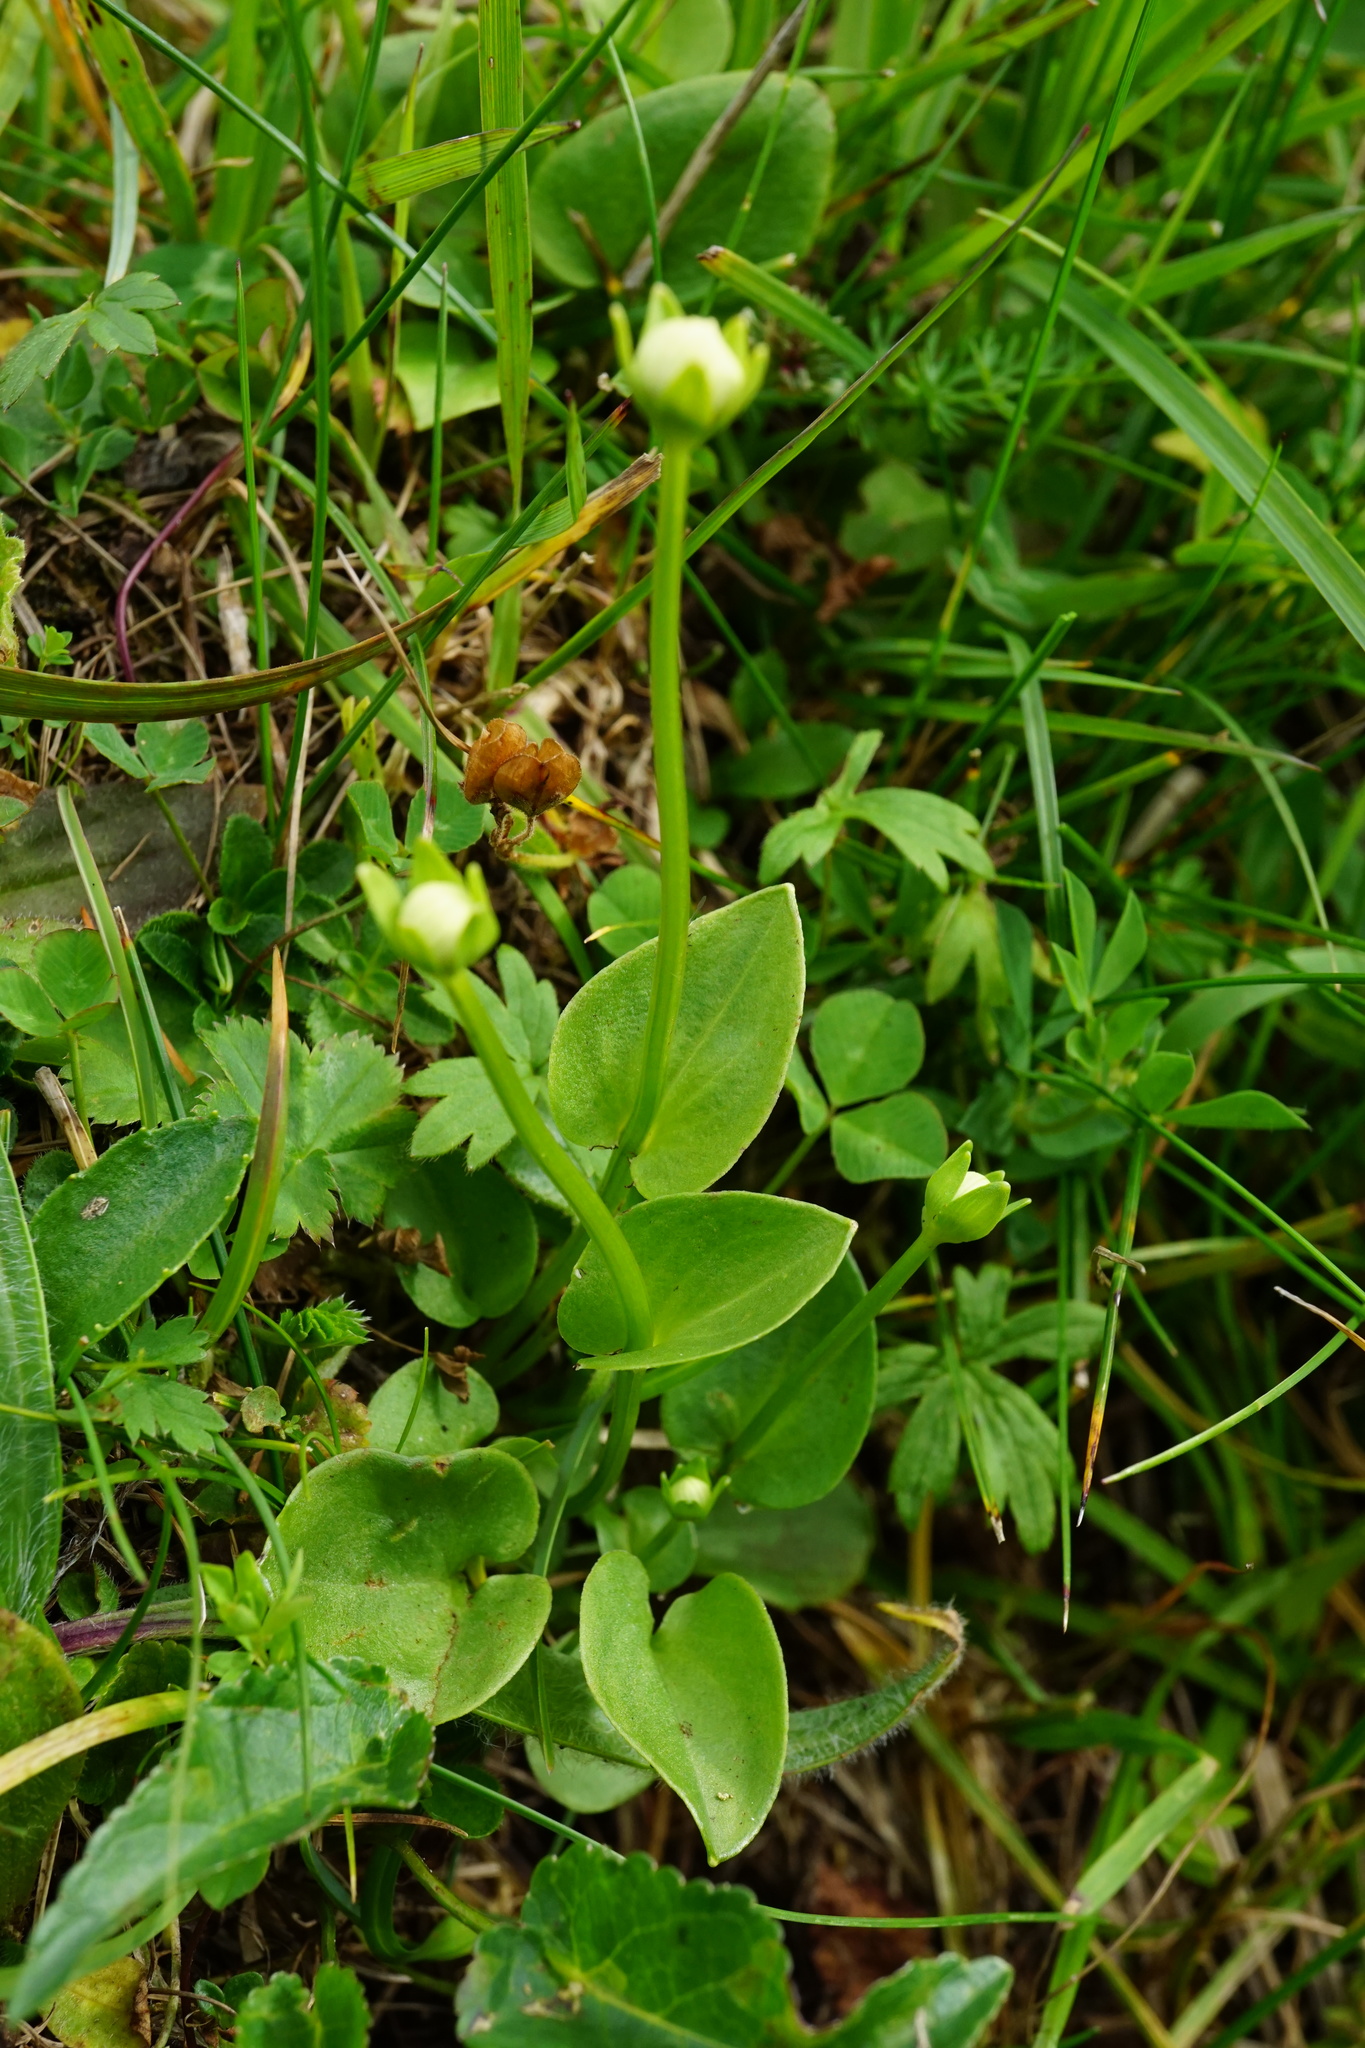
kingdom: Plantae
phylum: Tracheophyta
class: Magnoliopsida
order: Celastrales
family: Parnassiaceae
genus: Parnassia
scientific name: Parnassia palustris
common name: Grass-of-parnassus
